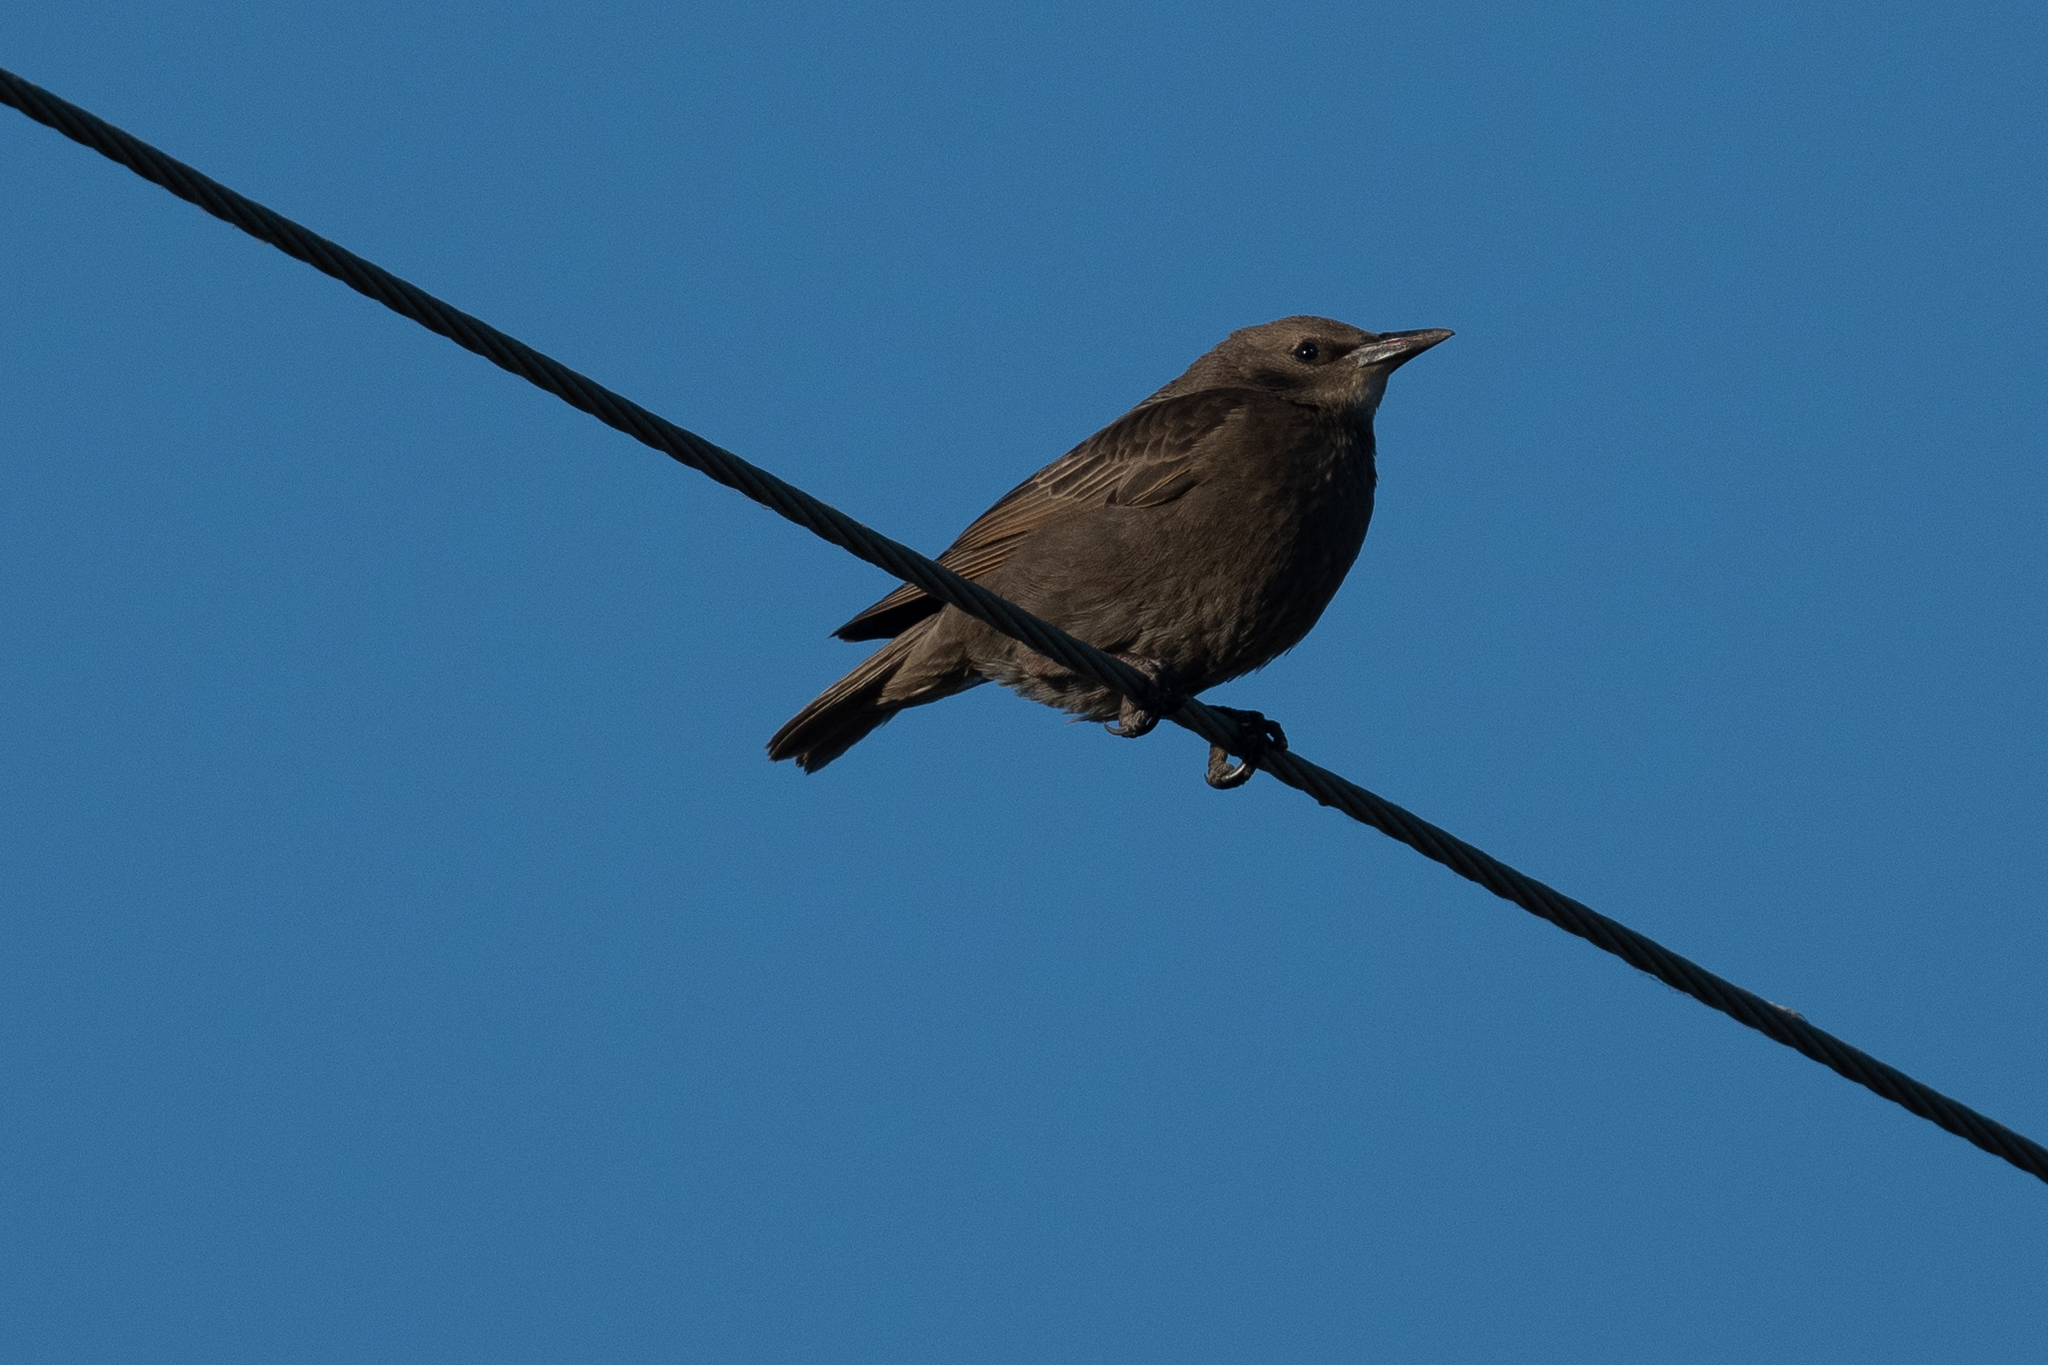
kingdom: Animalia
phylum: Chordata
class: Aves
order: Passeriformes
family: Sturnidae
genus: Sturnus
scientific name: Sturnus vulgaris
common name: Common starling
